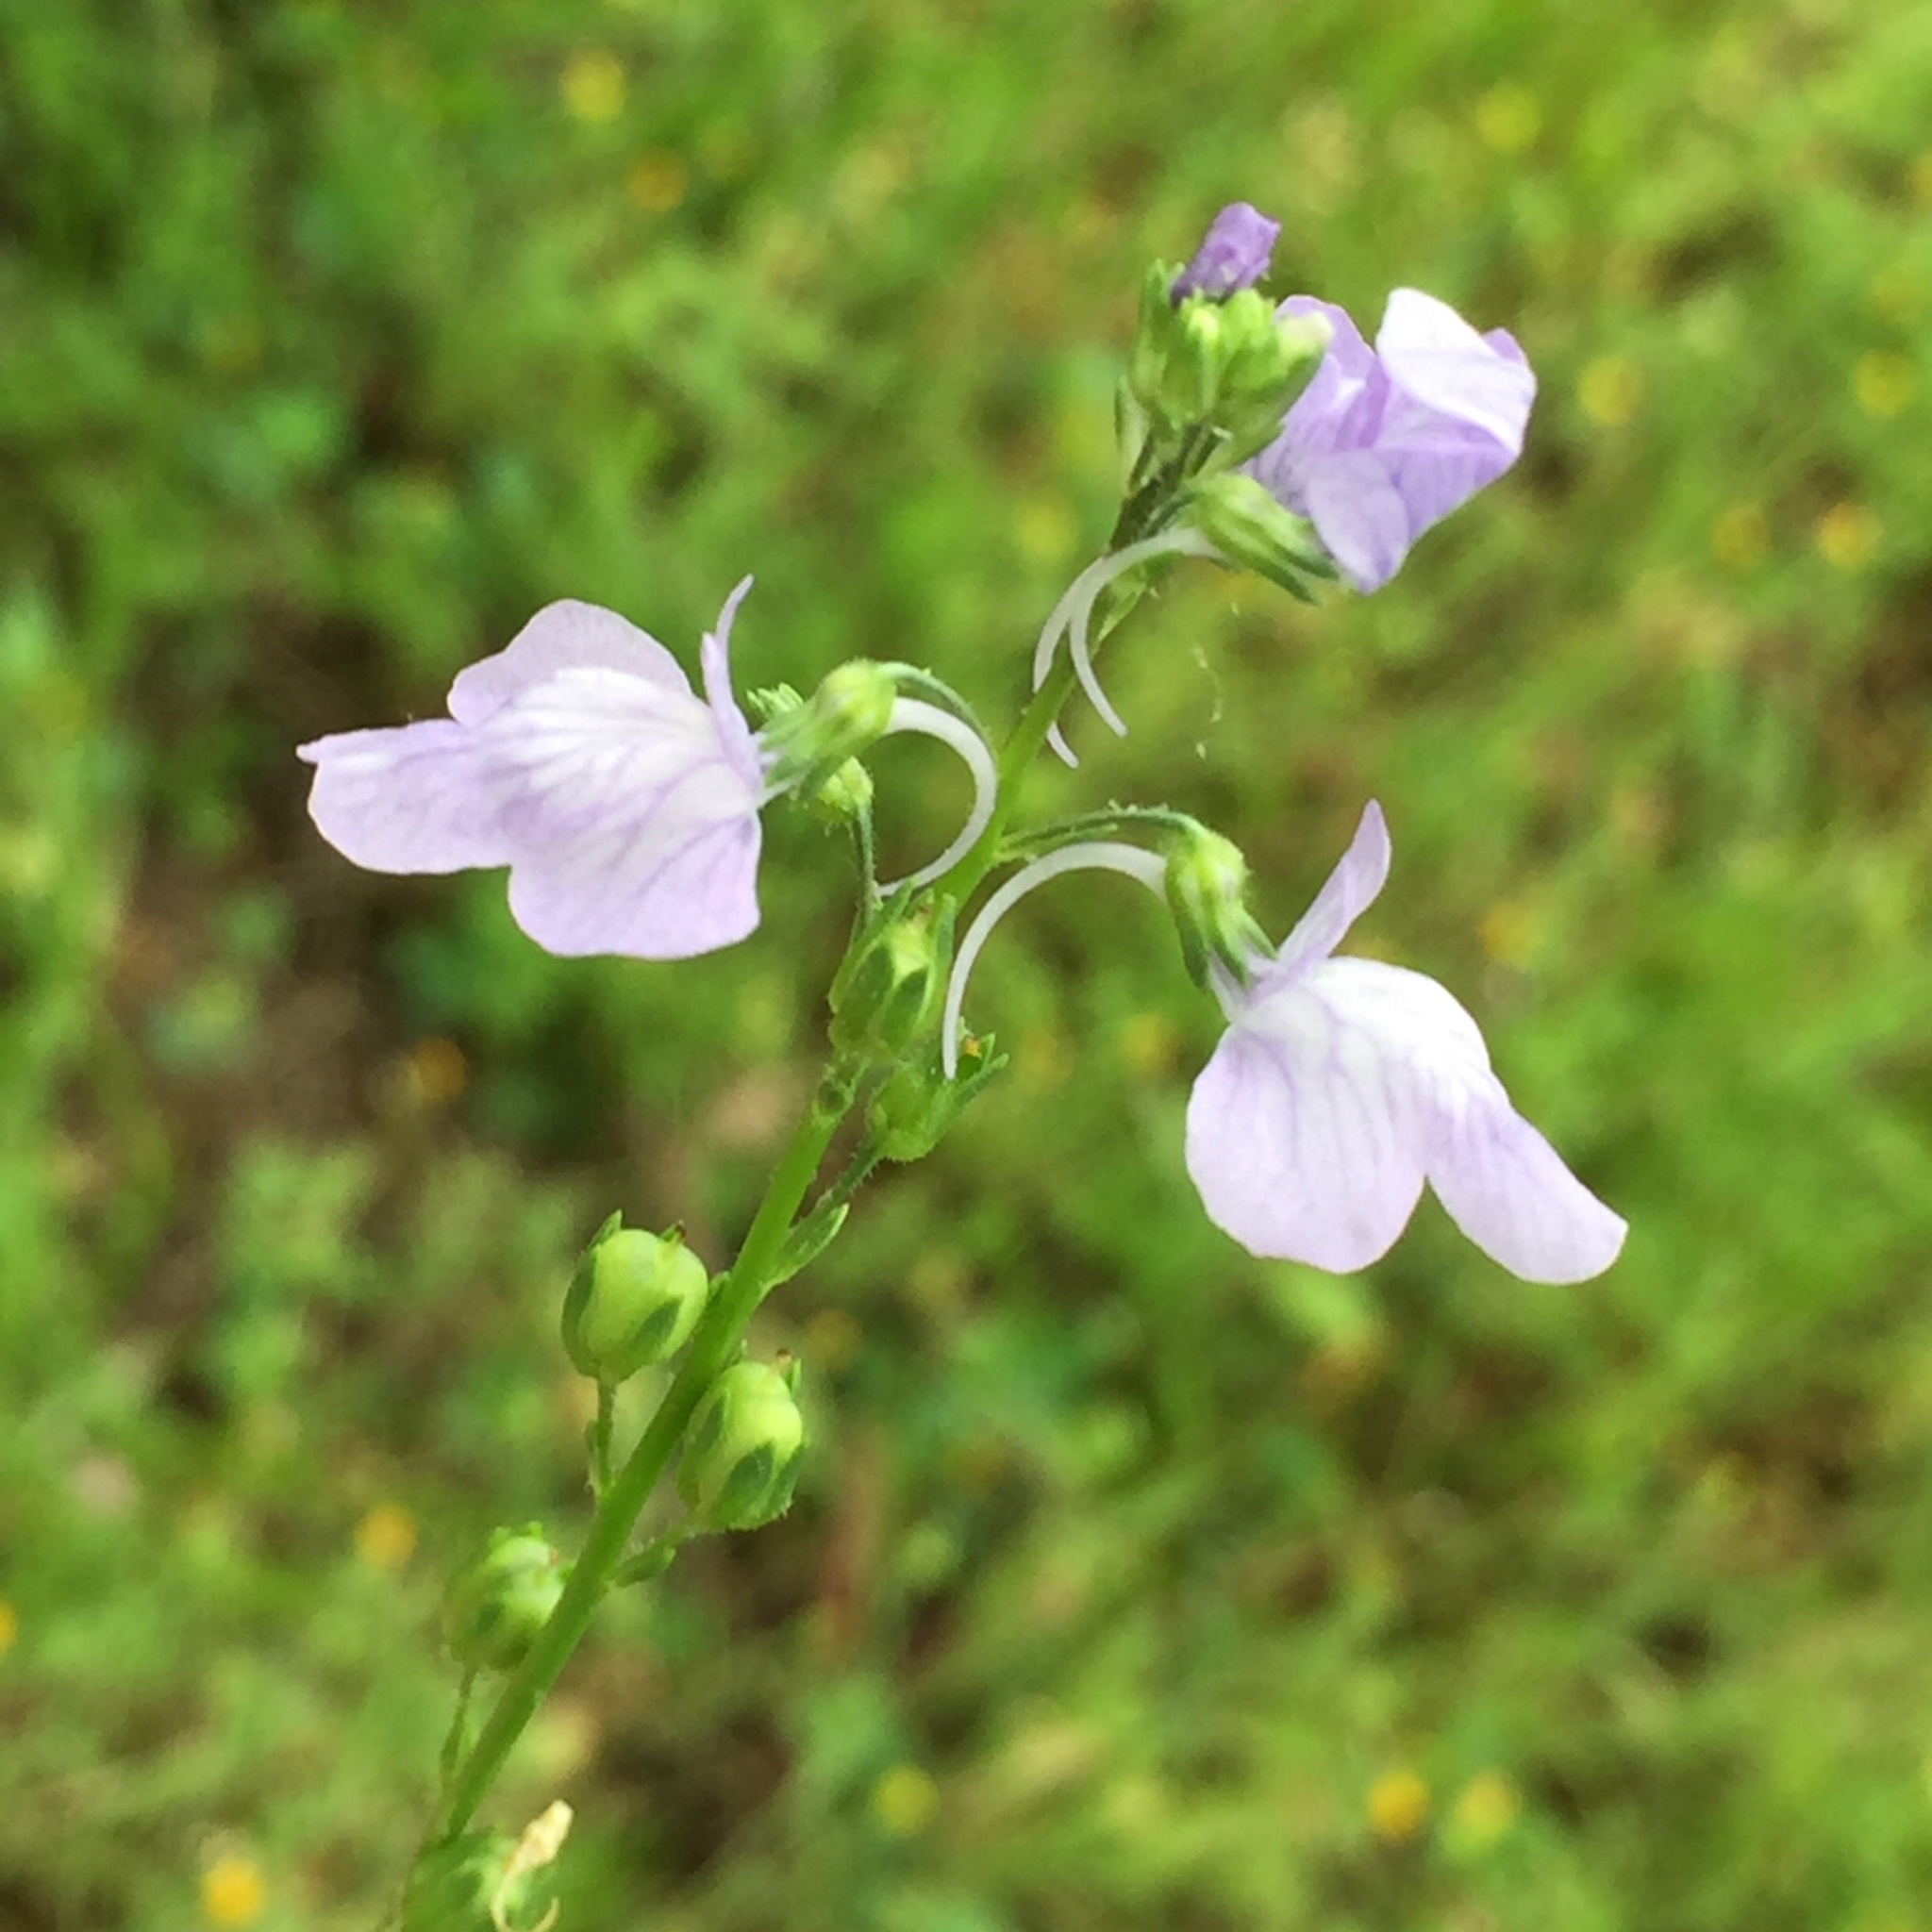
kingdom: Plantae
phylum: Tracheophyta
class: Magnoliopsida
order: Lamiales
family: Plantaginaceae
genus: Nuttallanthus
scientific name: Nuttallanthus texanus
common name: Texas toadflax
